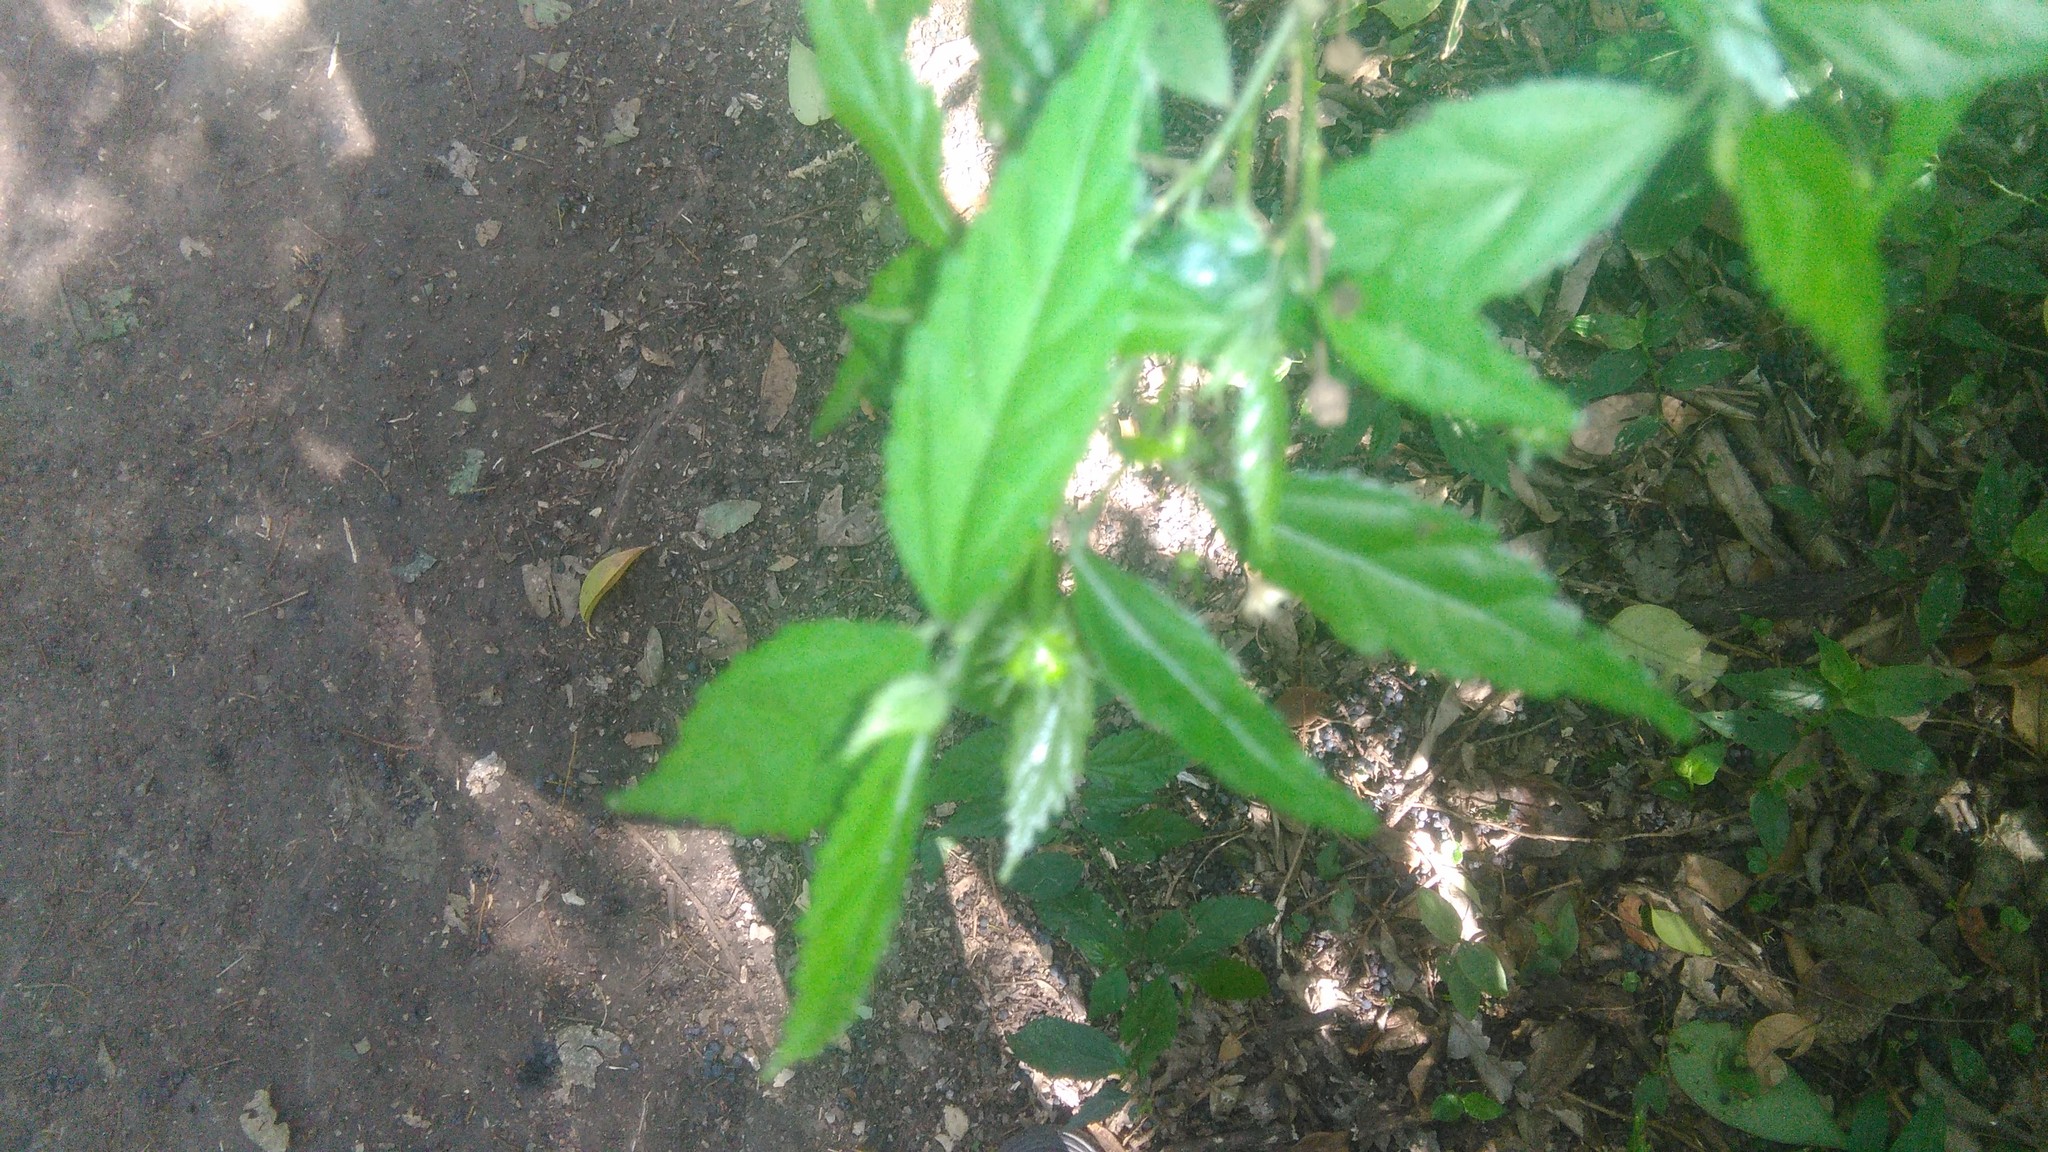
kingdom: Plantae
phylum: Tracheophyta
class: Magnoliopsida
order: Malvales
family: Malvaceae
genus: Pavonia
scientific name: Pavonia sepium
